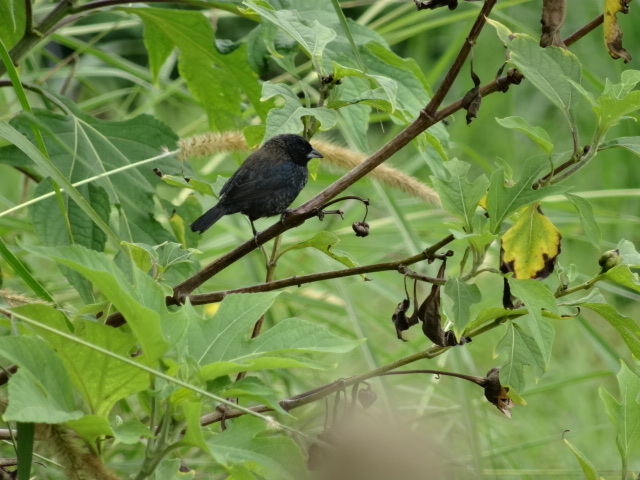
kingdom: Animalia
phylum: Chordata
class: Aves
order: Passeriformes
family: Thraupidae
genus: Volatinia
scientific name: Volatinia jacarina
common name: Blue-black grassquit
